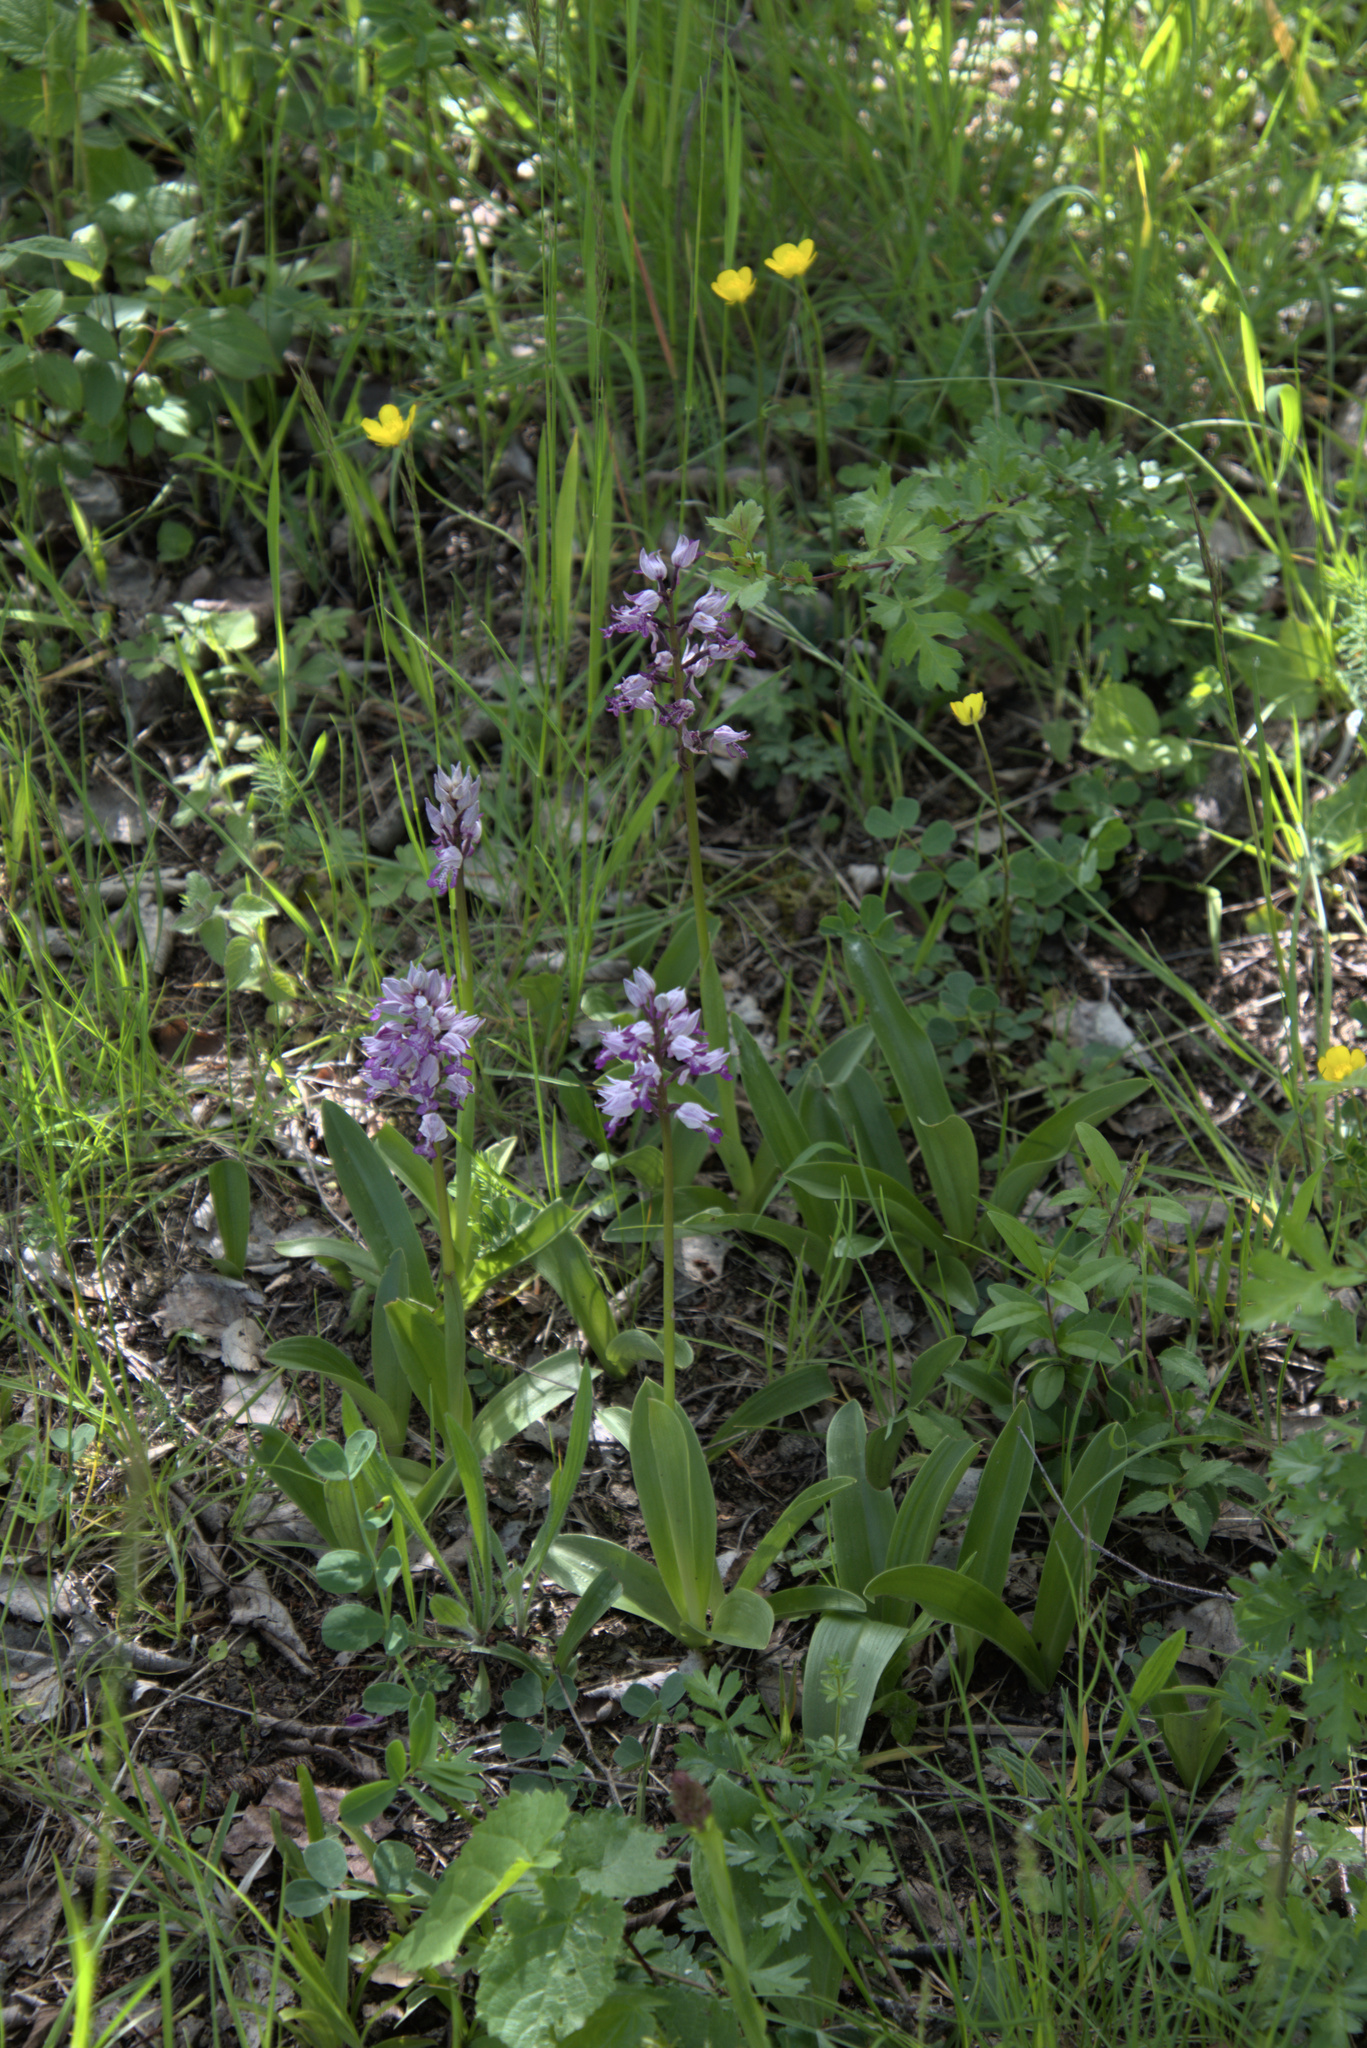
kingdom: Plantae
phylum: Tracheophyta
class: Liliopsida
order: Asparagales
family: Orchidaceae
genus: Orchis
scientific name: Orchis militaris
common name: Military orchid
